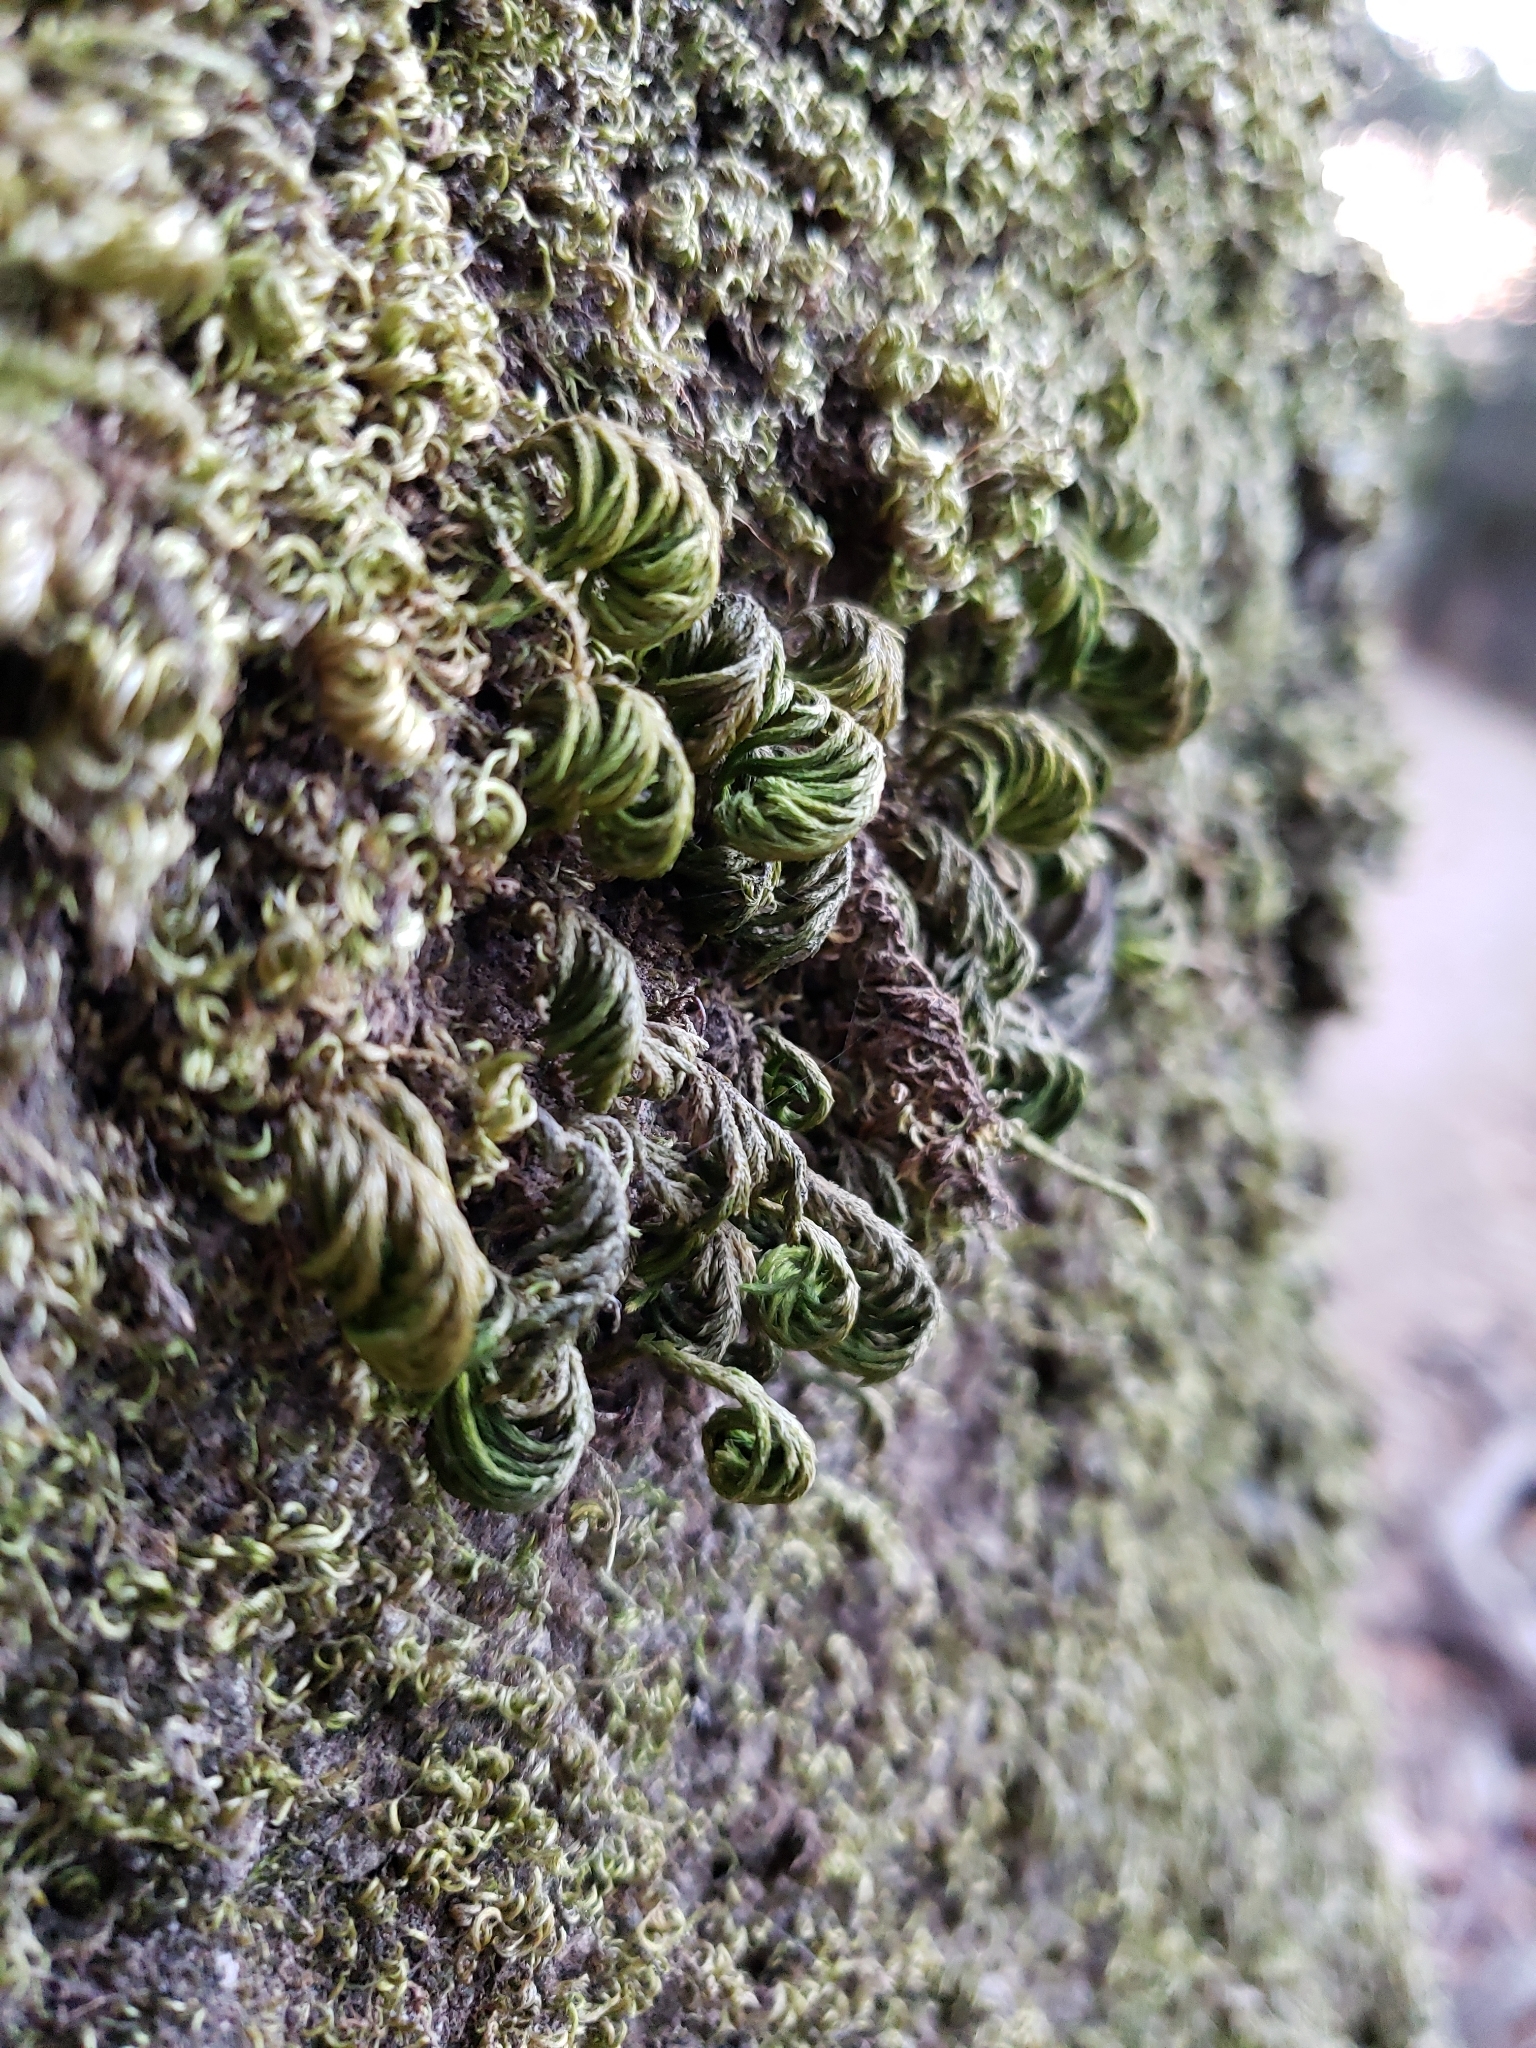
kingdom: Plantae
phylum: Bryophyta
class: Bryopsida
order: Hypnales
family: Cryphaeaceae
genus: Dendroalsia
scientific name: Dendroalsia abietina
